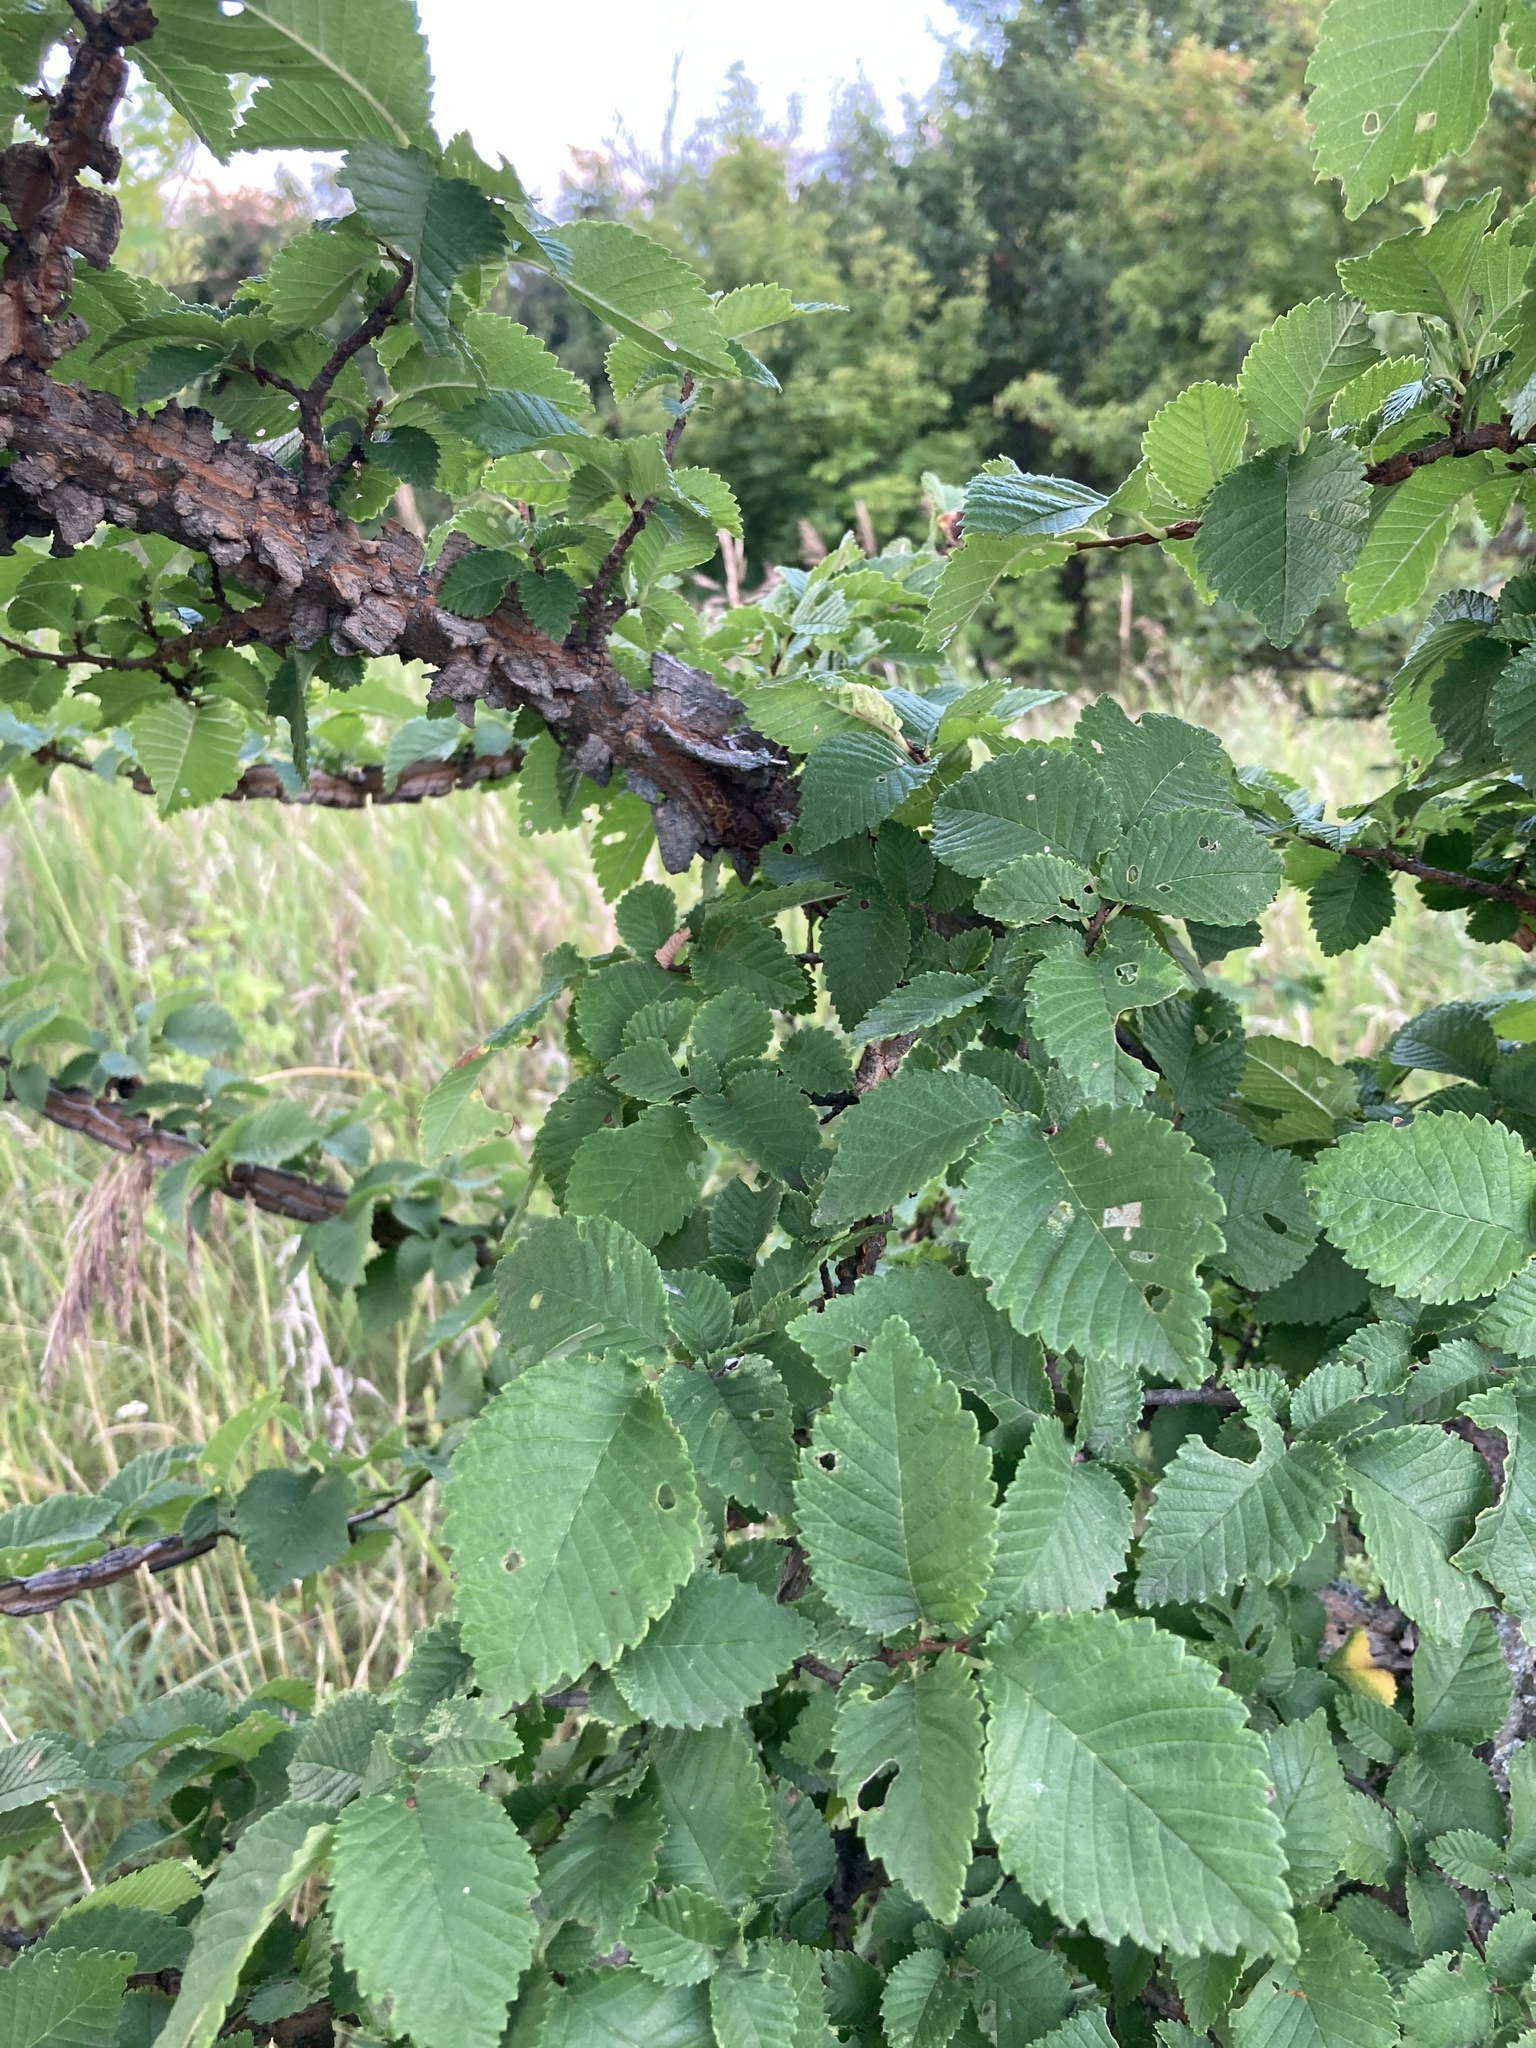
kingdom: Plantae
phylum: Tracheophyta
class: Magnoliopsida
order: Rosales
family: Ulmaceae
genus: Ulmus
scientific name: Ulmus minor
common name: Small-leaved elm
